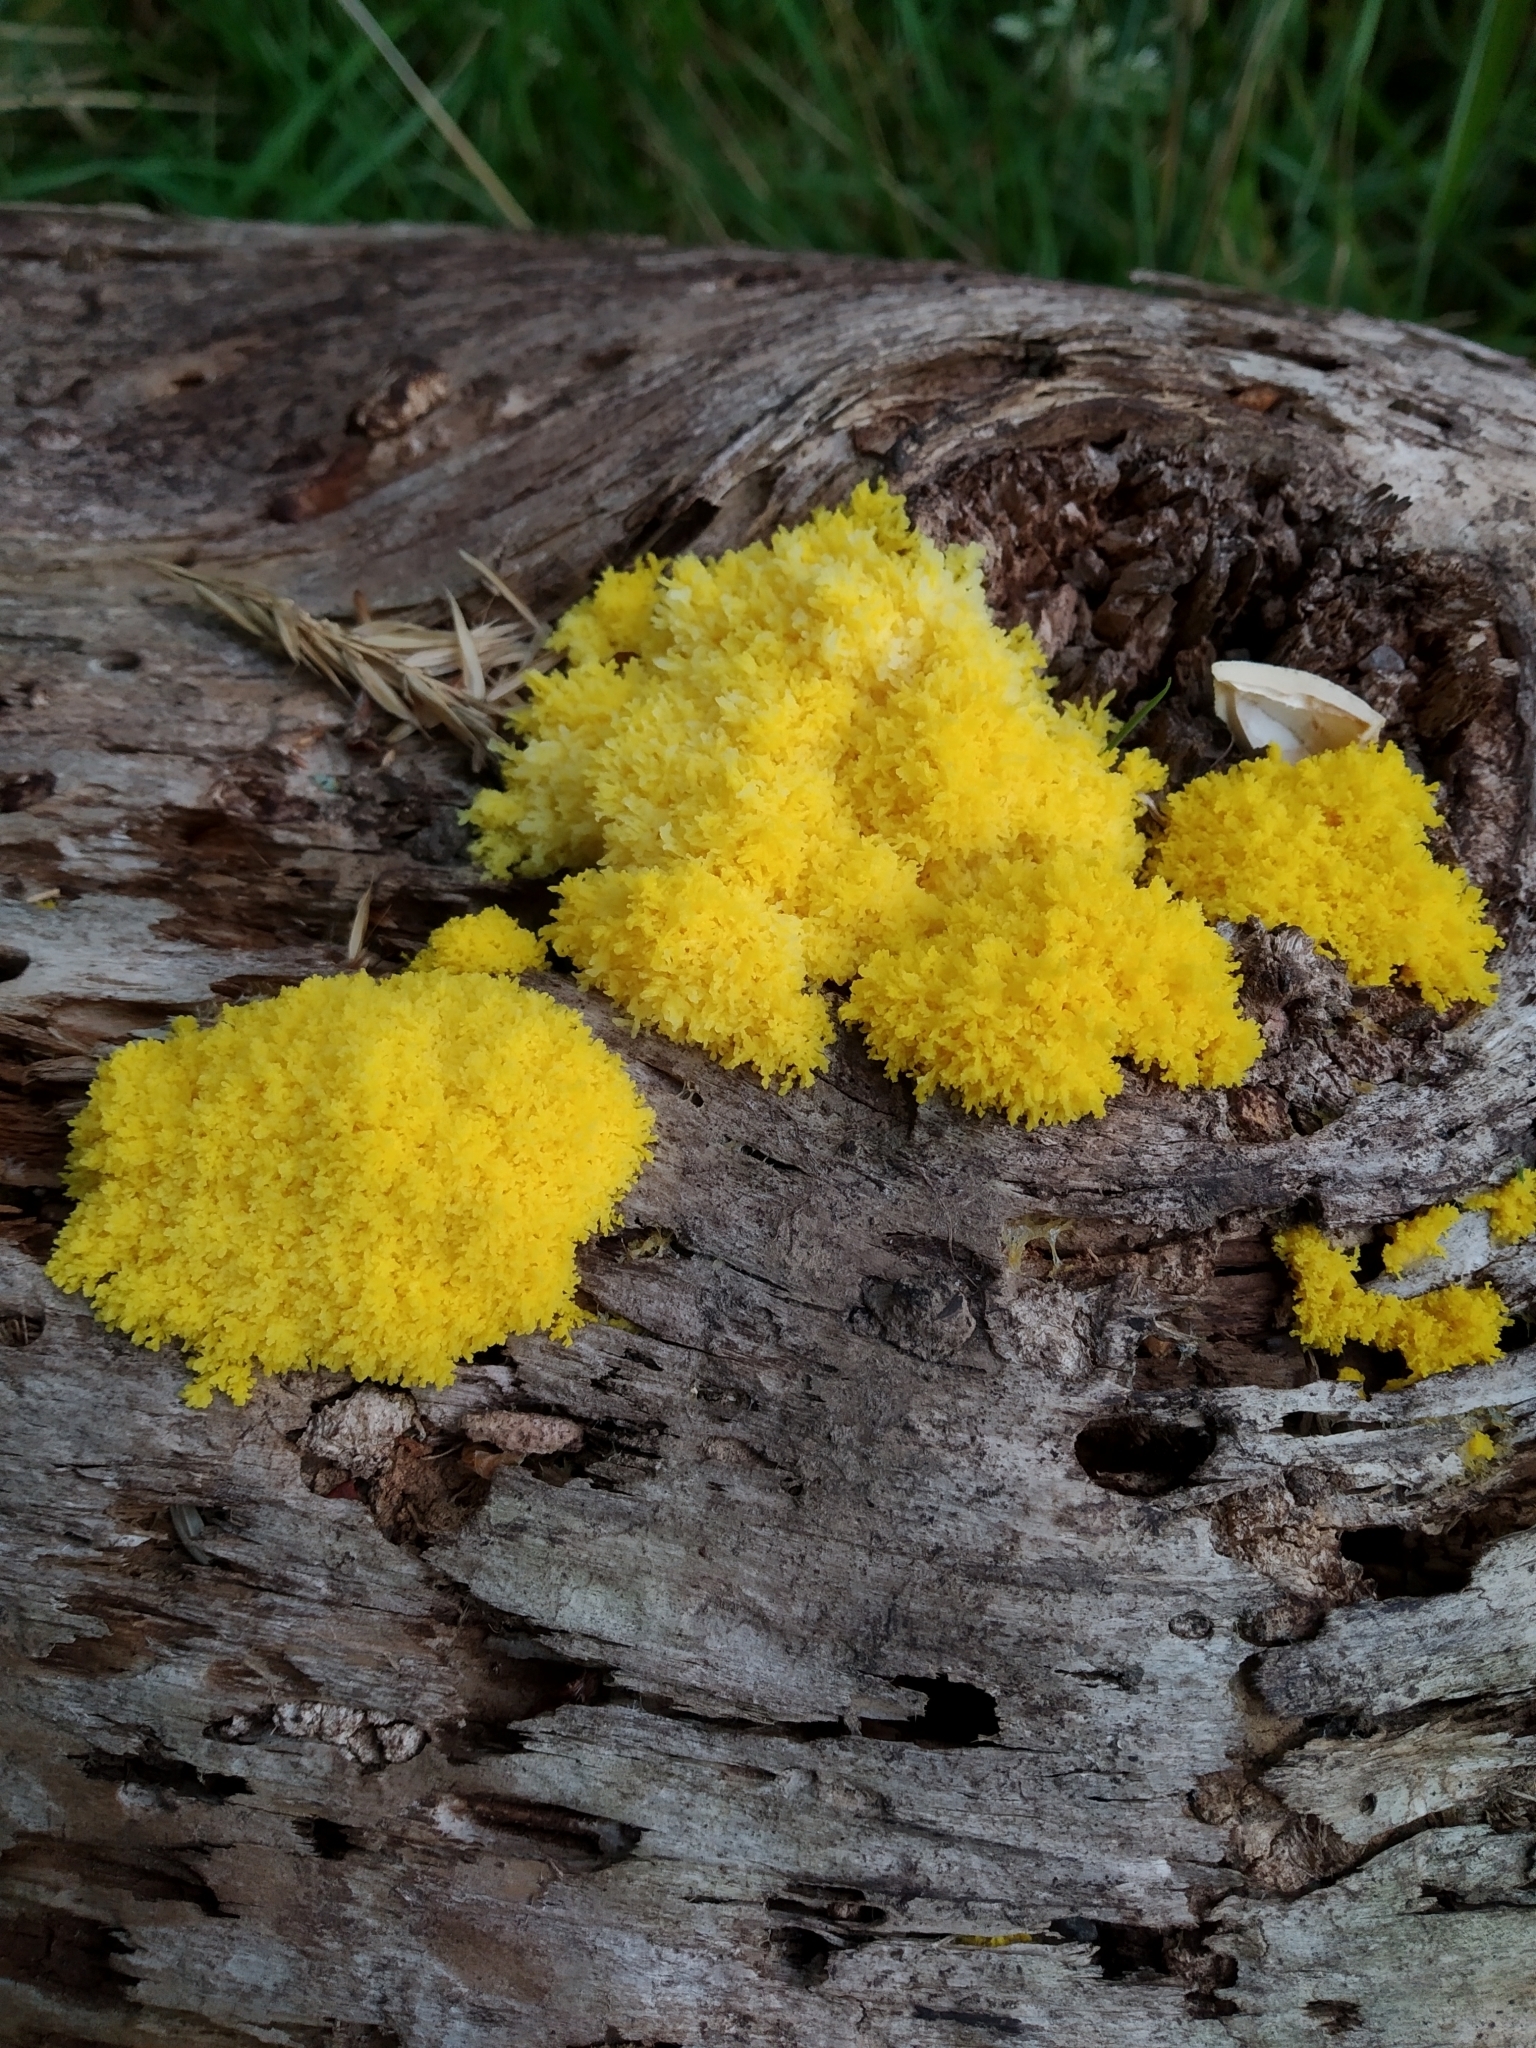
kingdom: Protozoa
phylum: Mycetozoa
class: Myxomycetes
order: Physarales
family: Physaraceae
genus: Fuligo
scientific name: Fuligo septica
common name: Dog vomit slime mold
